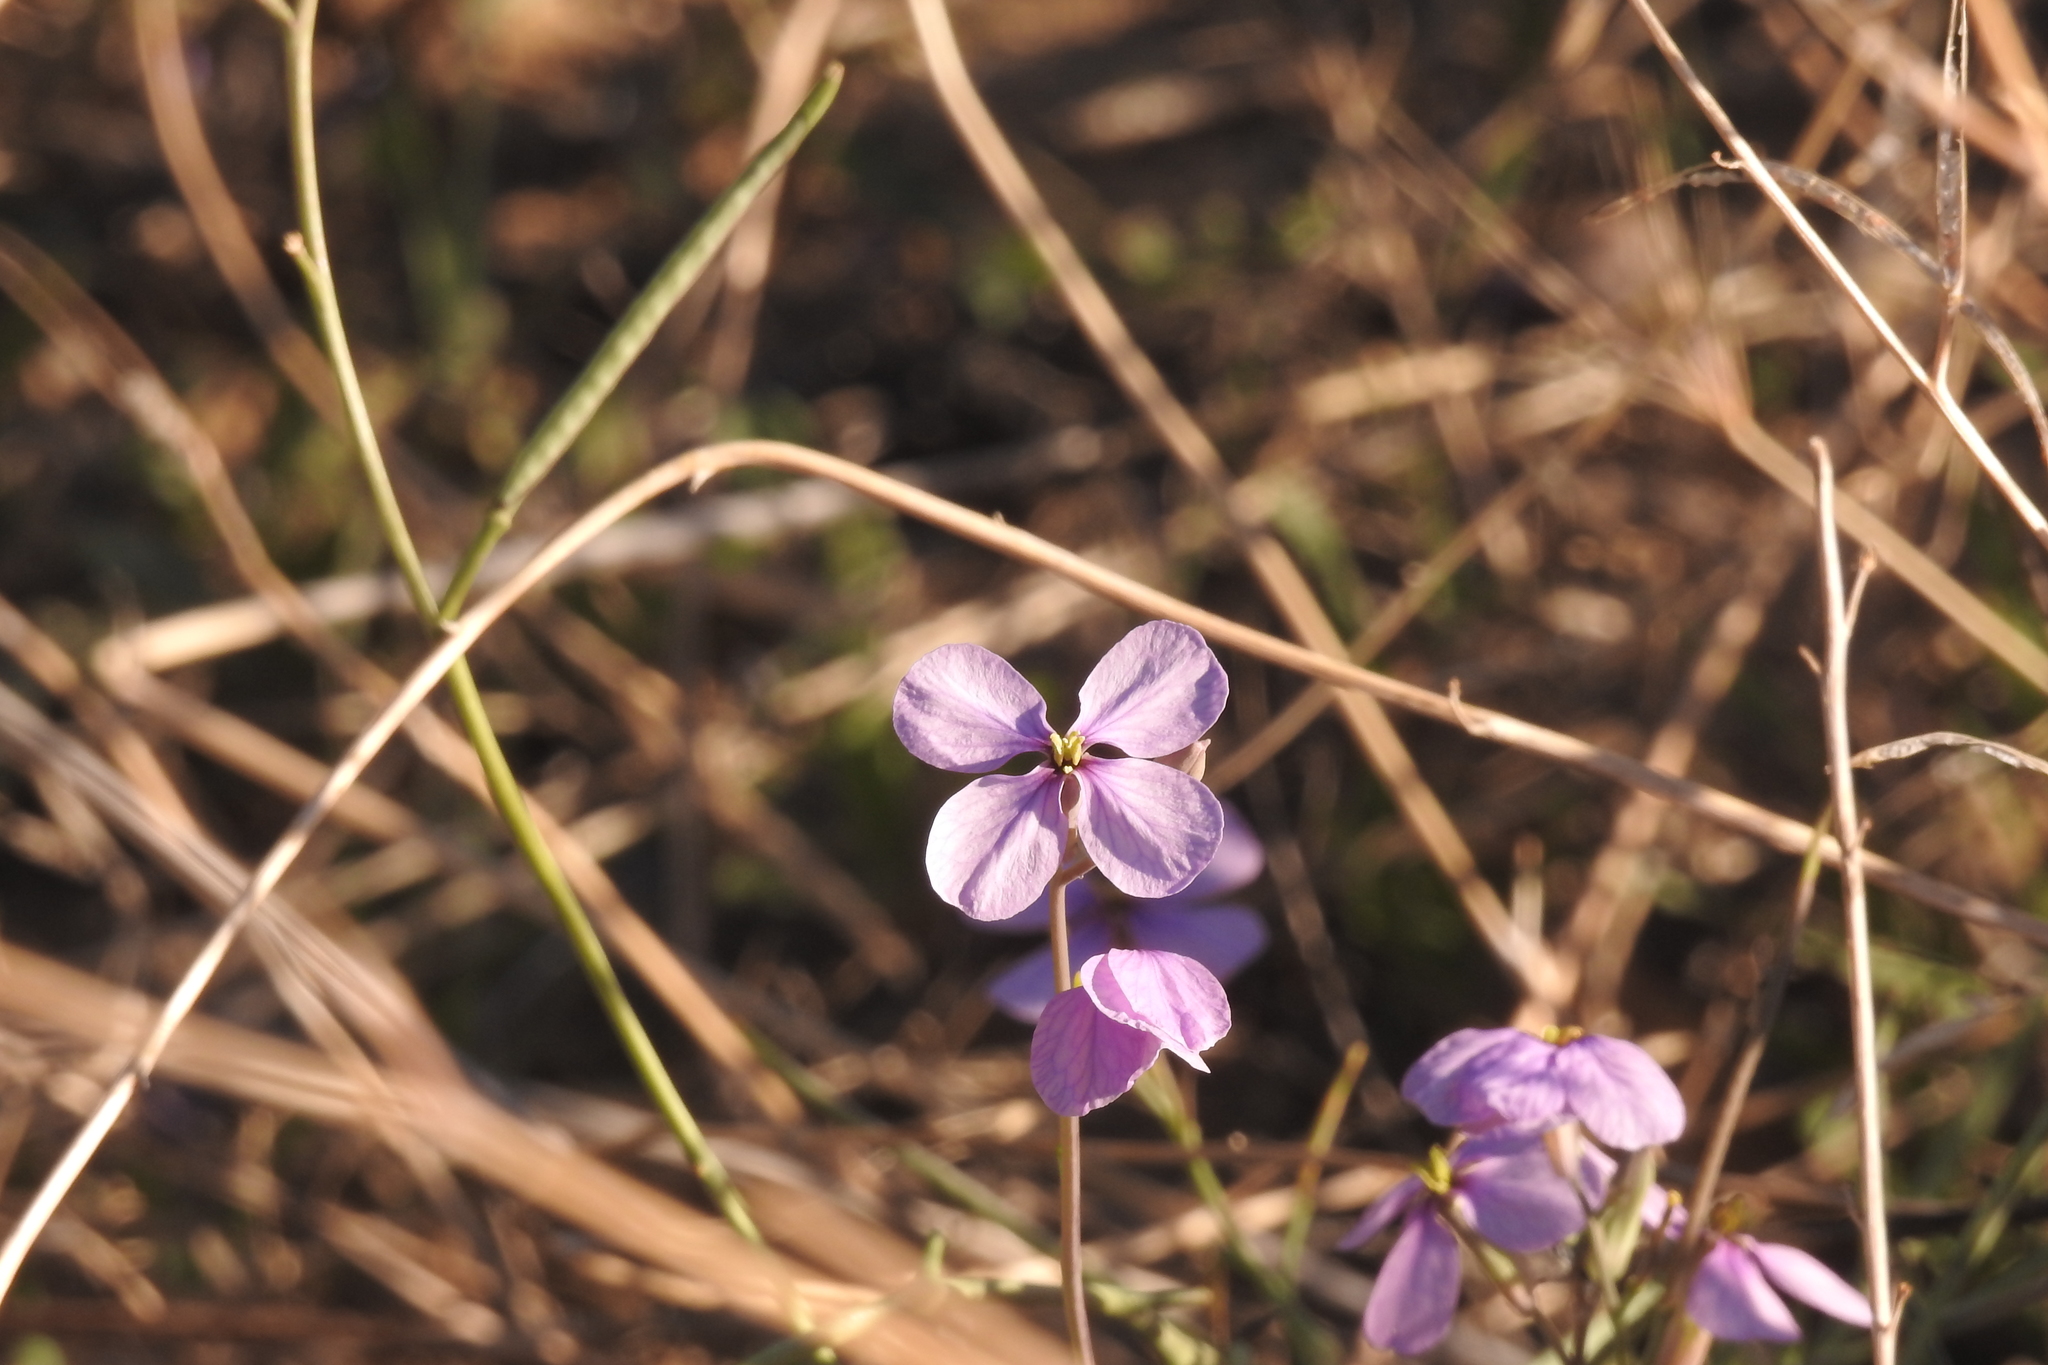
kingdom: Plantae
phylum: Tracheophyta
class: Magnoliopsida
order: Brassicales
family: Brassicaceae
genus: Moricandia
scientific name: Moricandia arvensis
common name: Purple mistress
